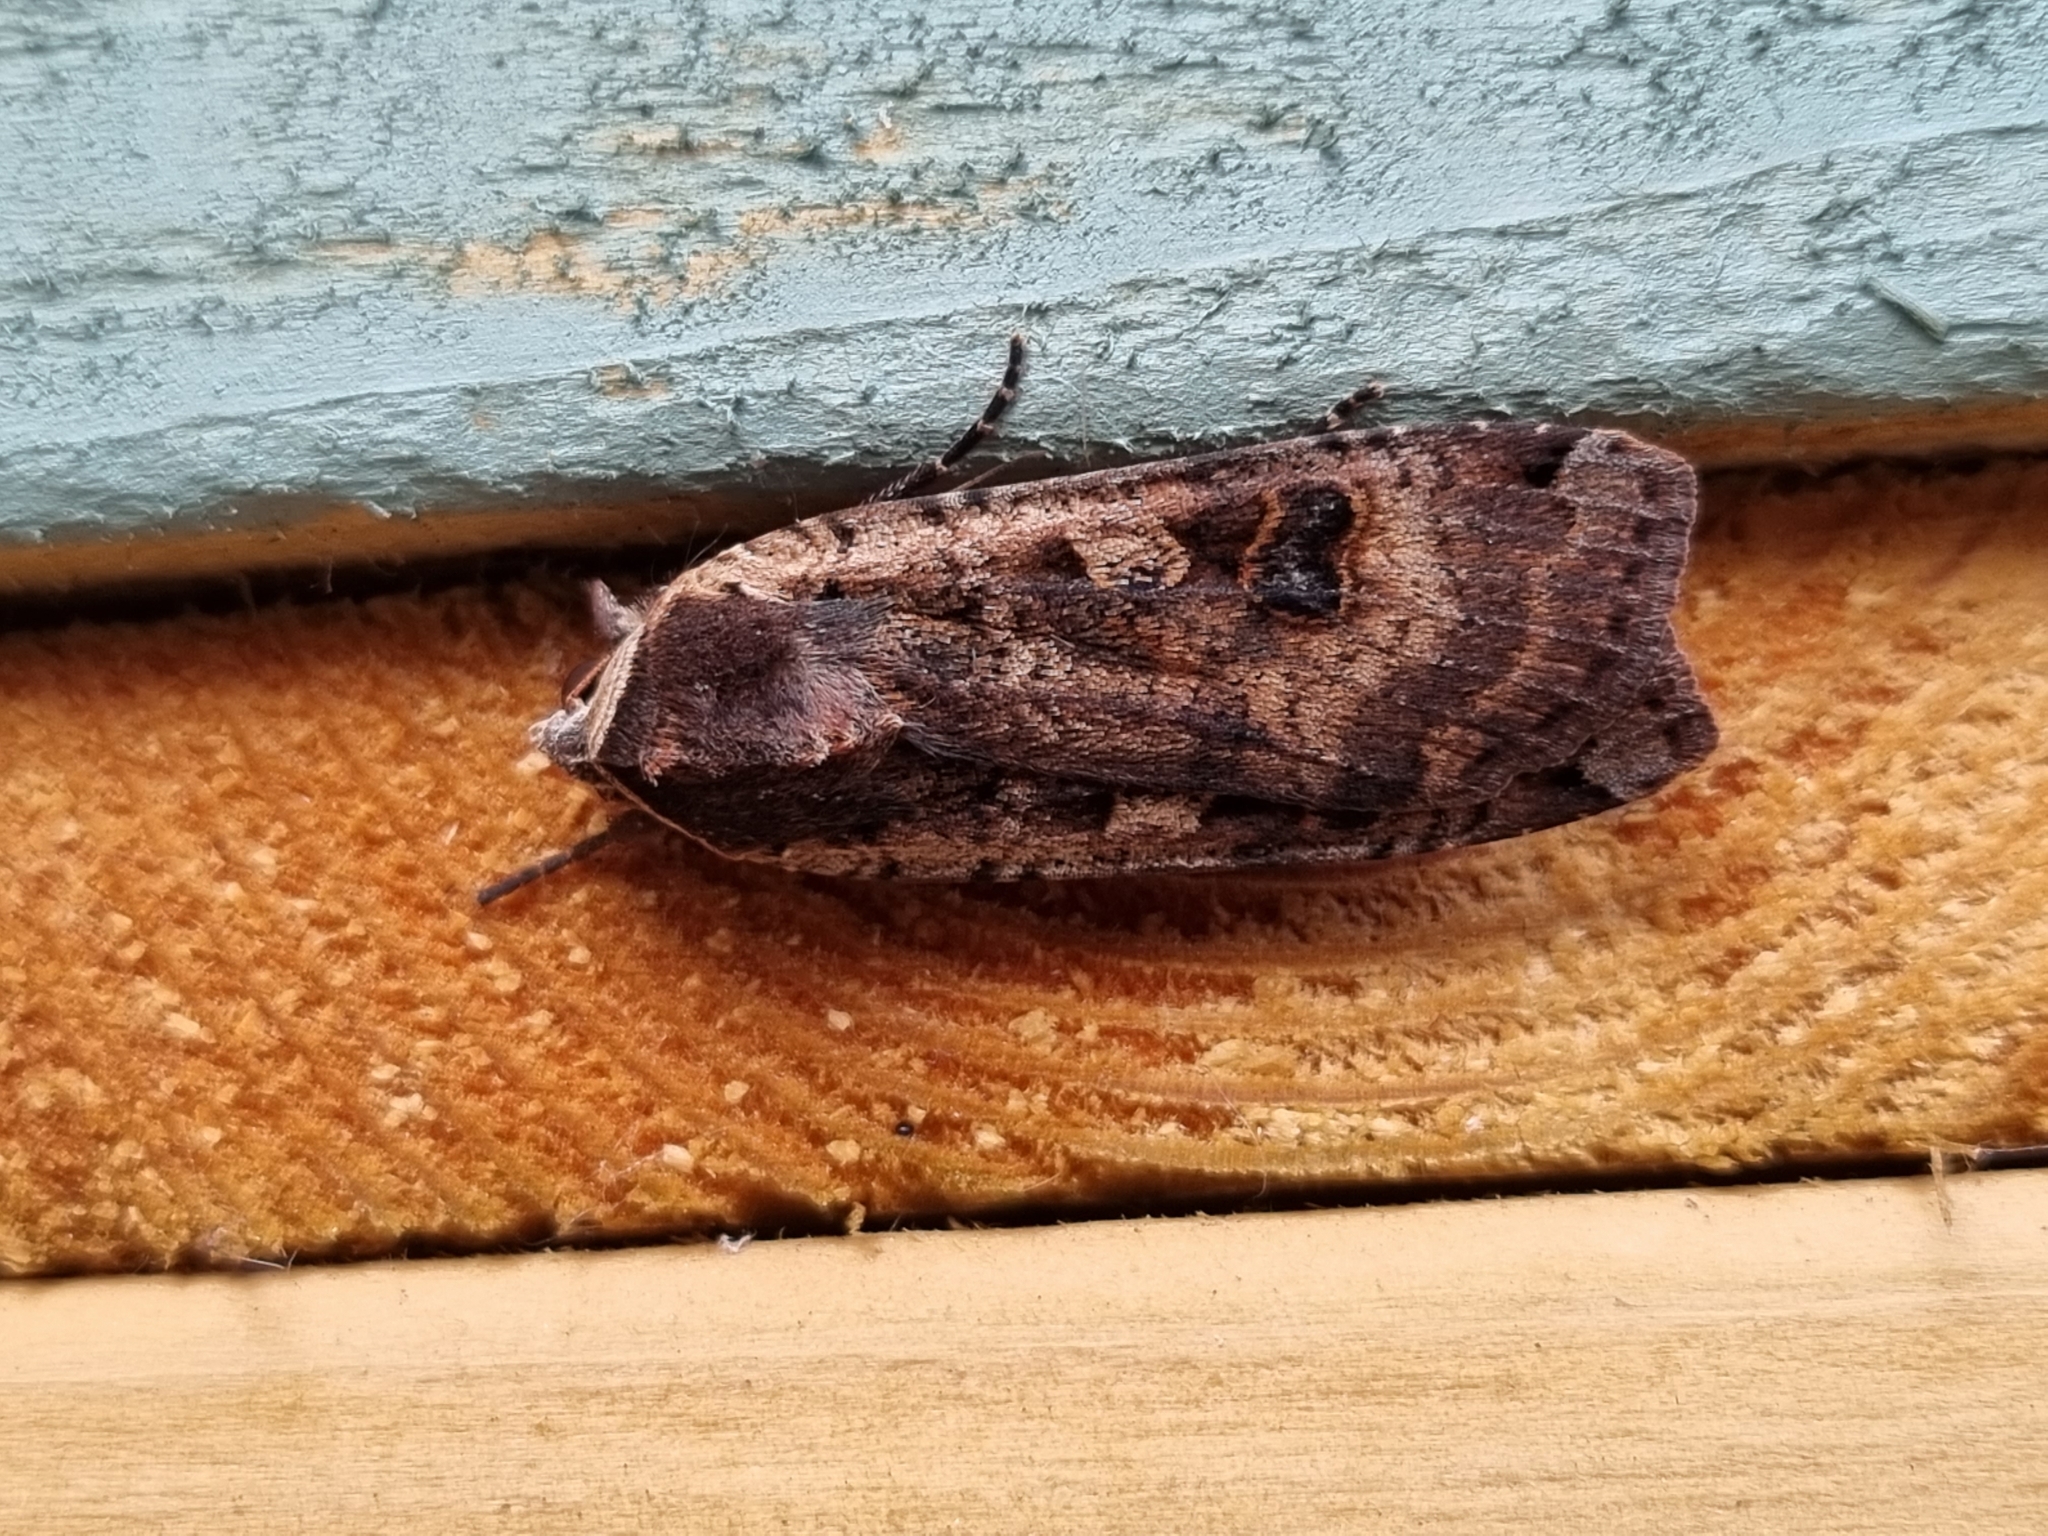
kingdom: Animalia
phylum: Arthropoda
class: Insecta
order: Lepidoptera
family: Noctuidae
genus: Noctua
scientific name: Noctua pronuba
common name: Large yellow underwing
